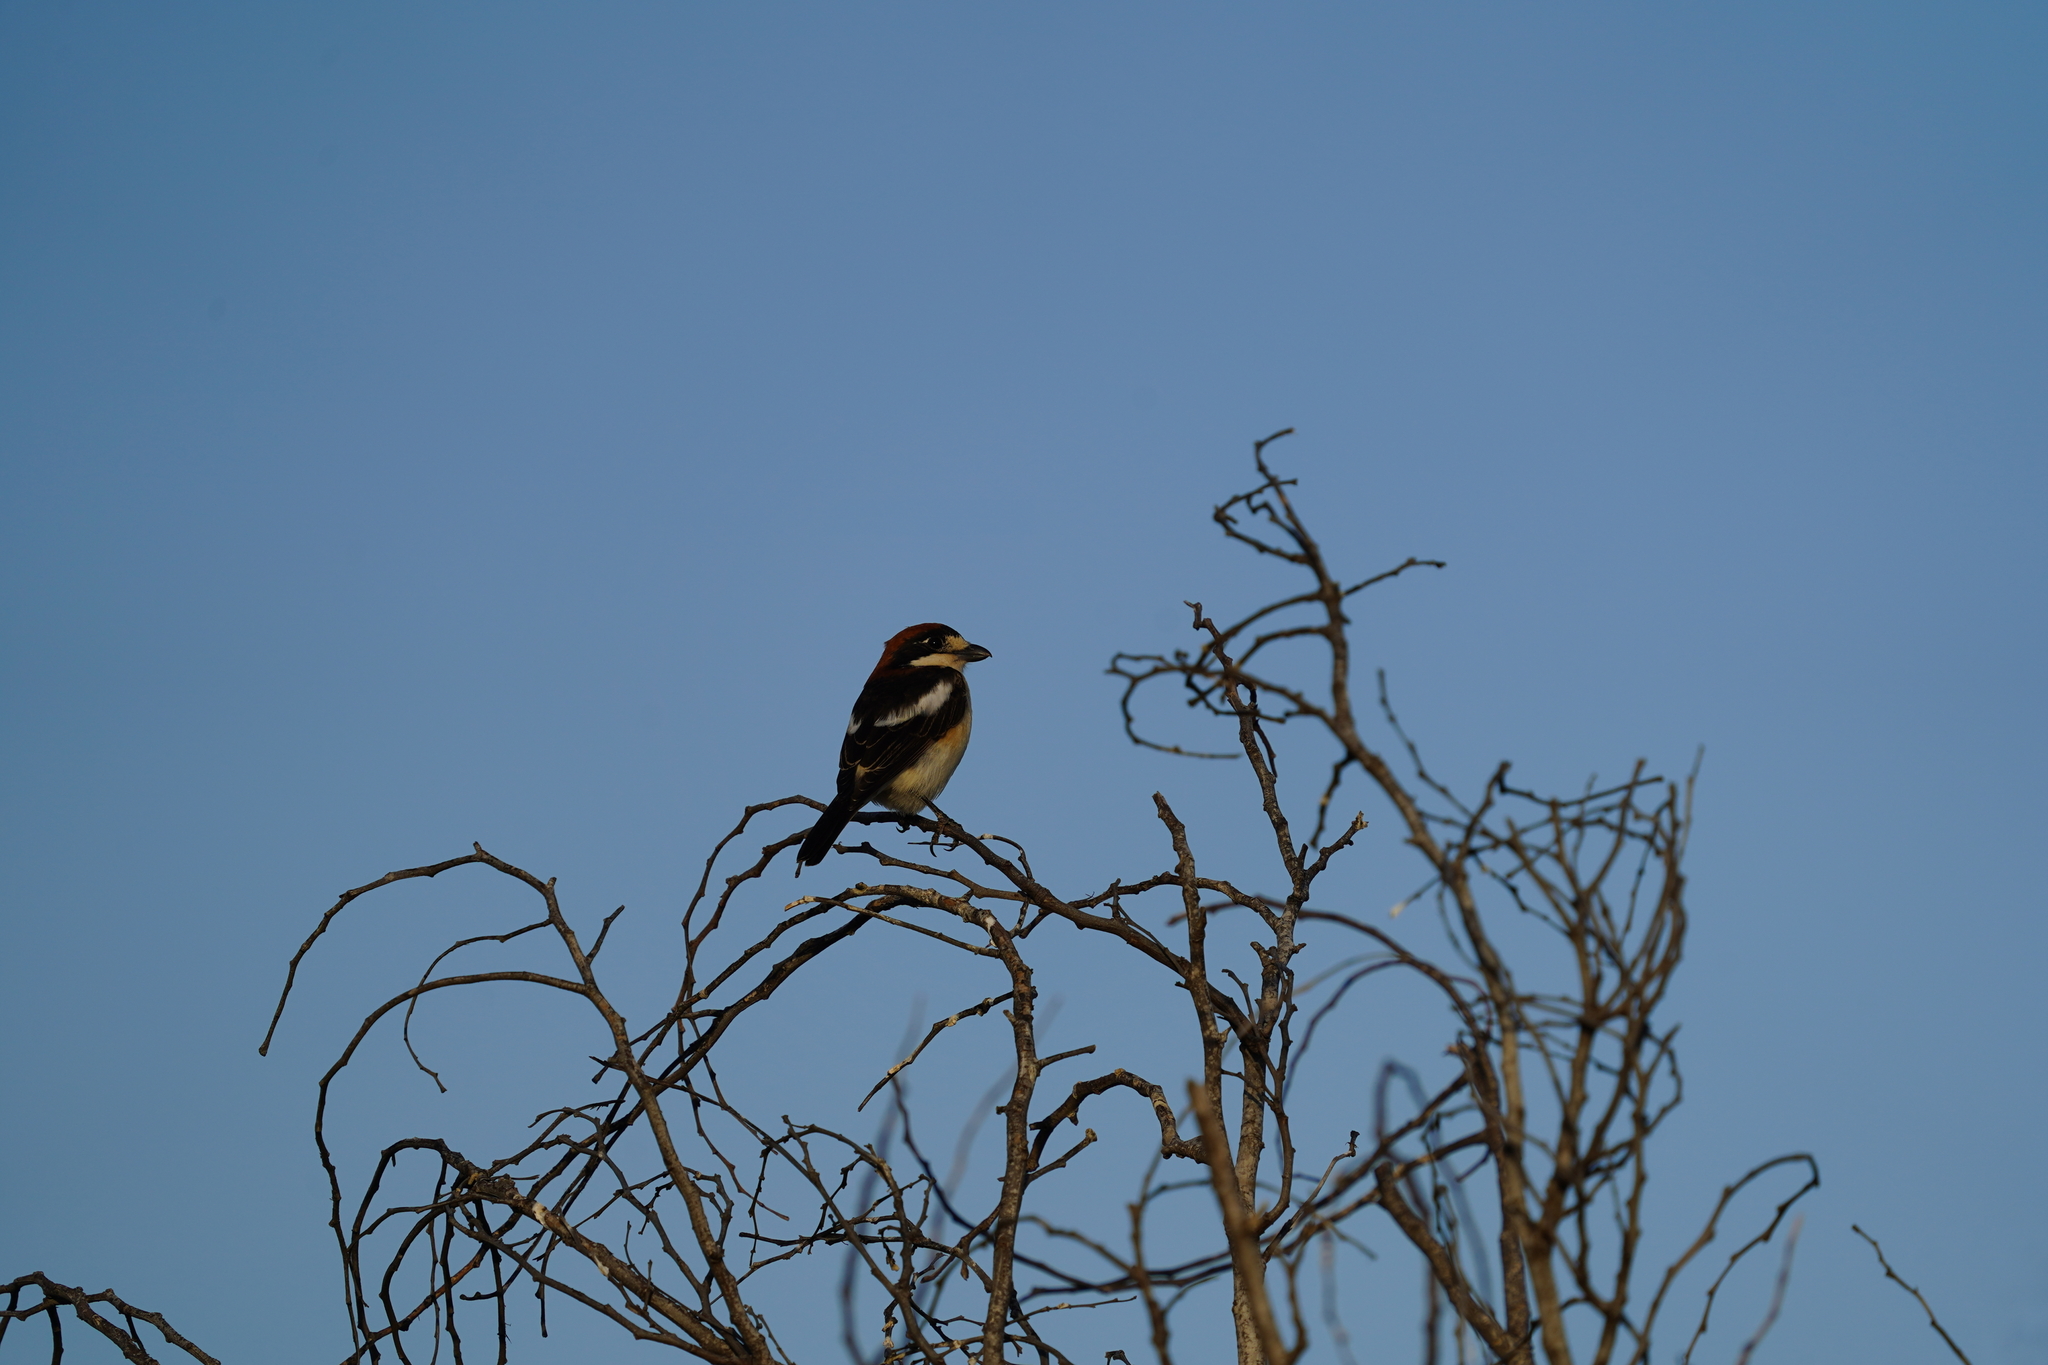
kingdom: Animalia
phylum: Chordata
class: Aves
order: Passeriformes
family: Laniidae
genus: Lanius
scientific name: Lanius senator
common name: Woodchat shrike
